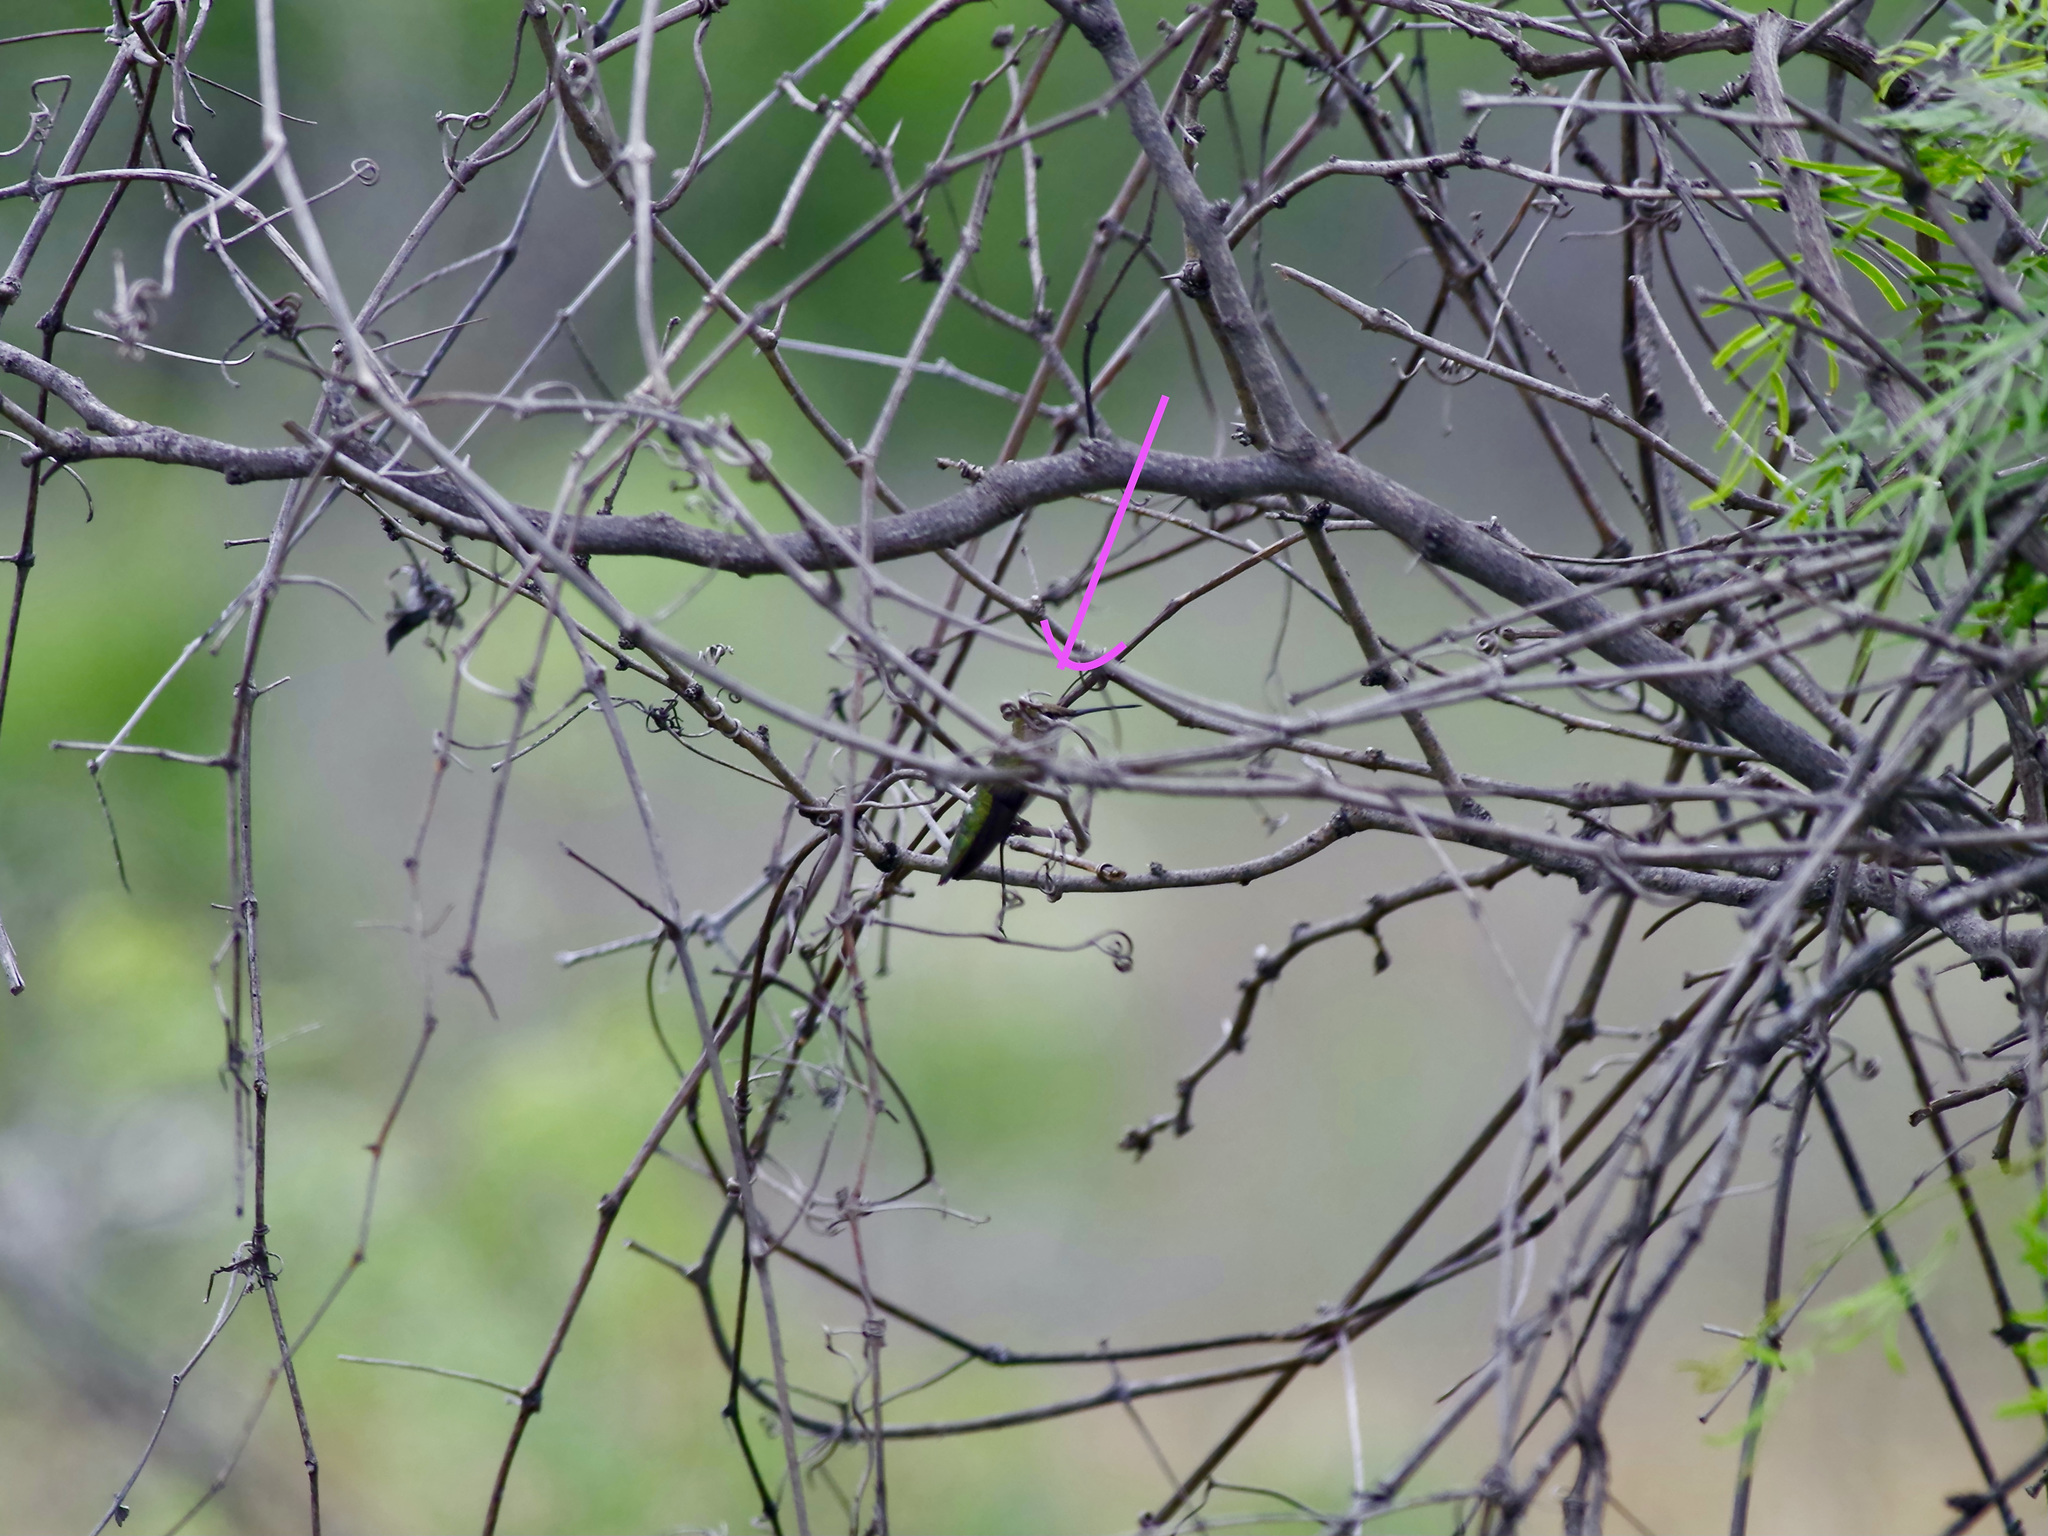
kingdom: Animalia
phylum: Chordata
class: Aves
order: Apodiformes
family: Trochilidae
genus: Archilochus
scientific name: Archilochus colubris
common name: Ruby-throated hummingbird
